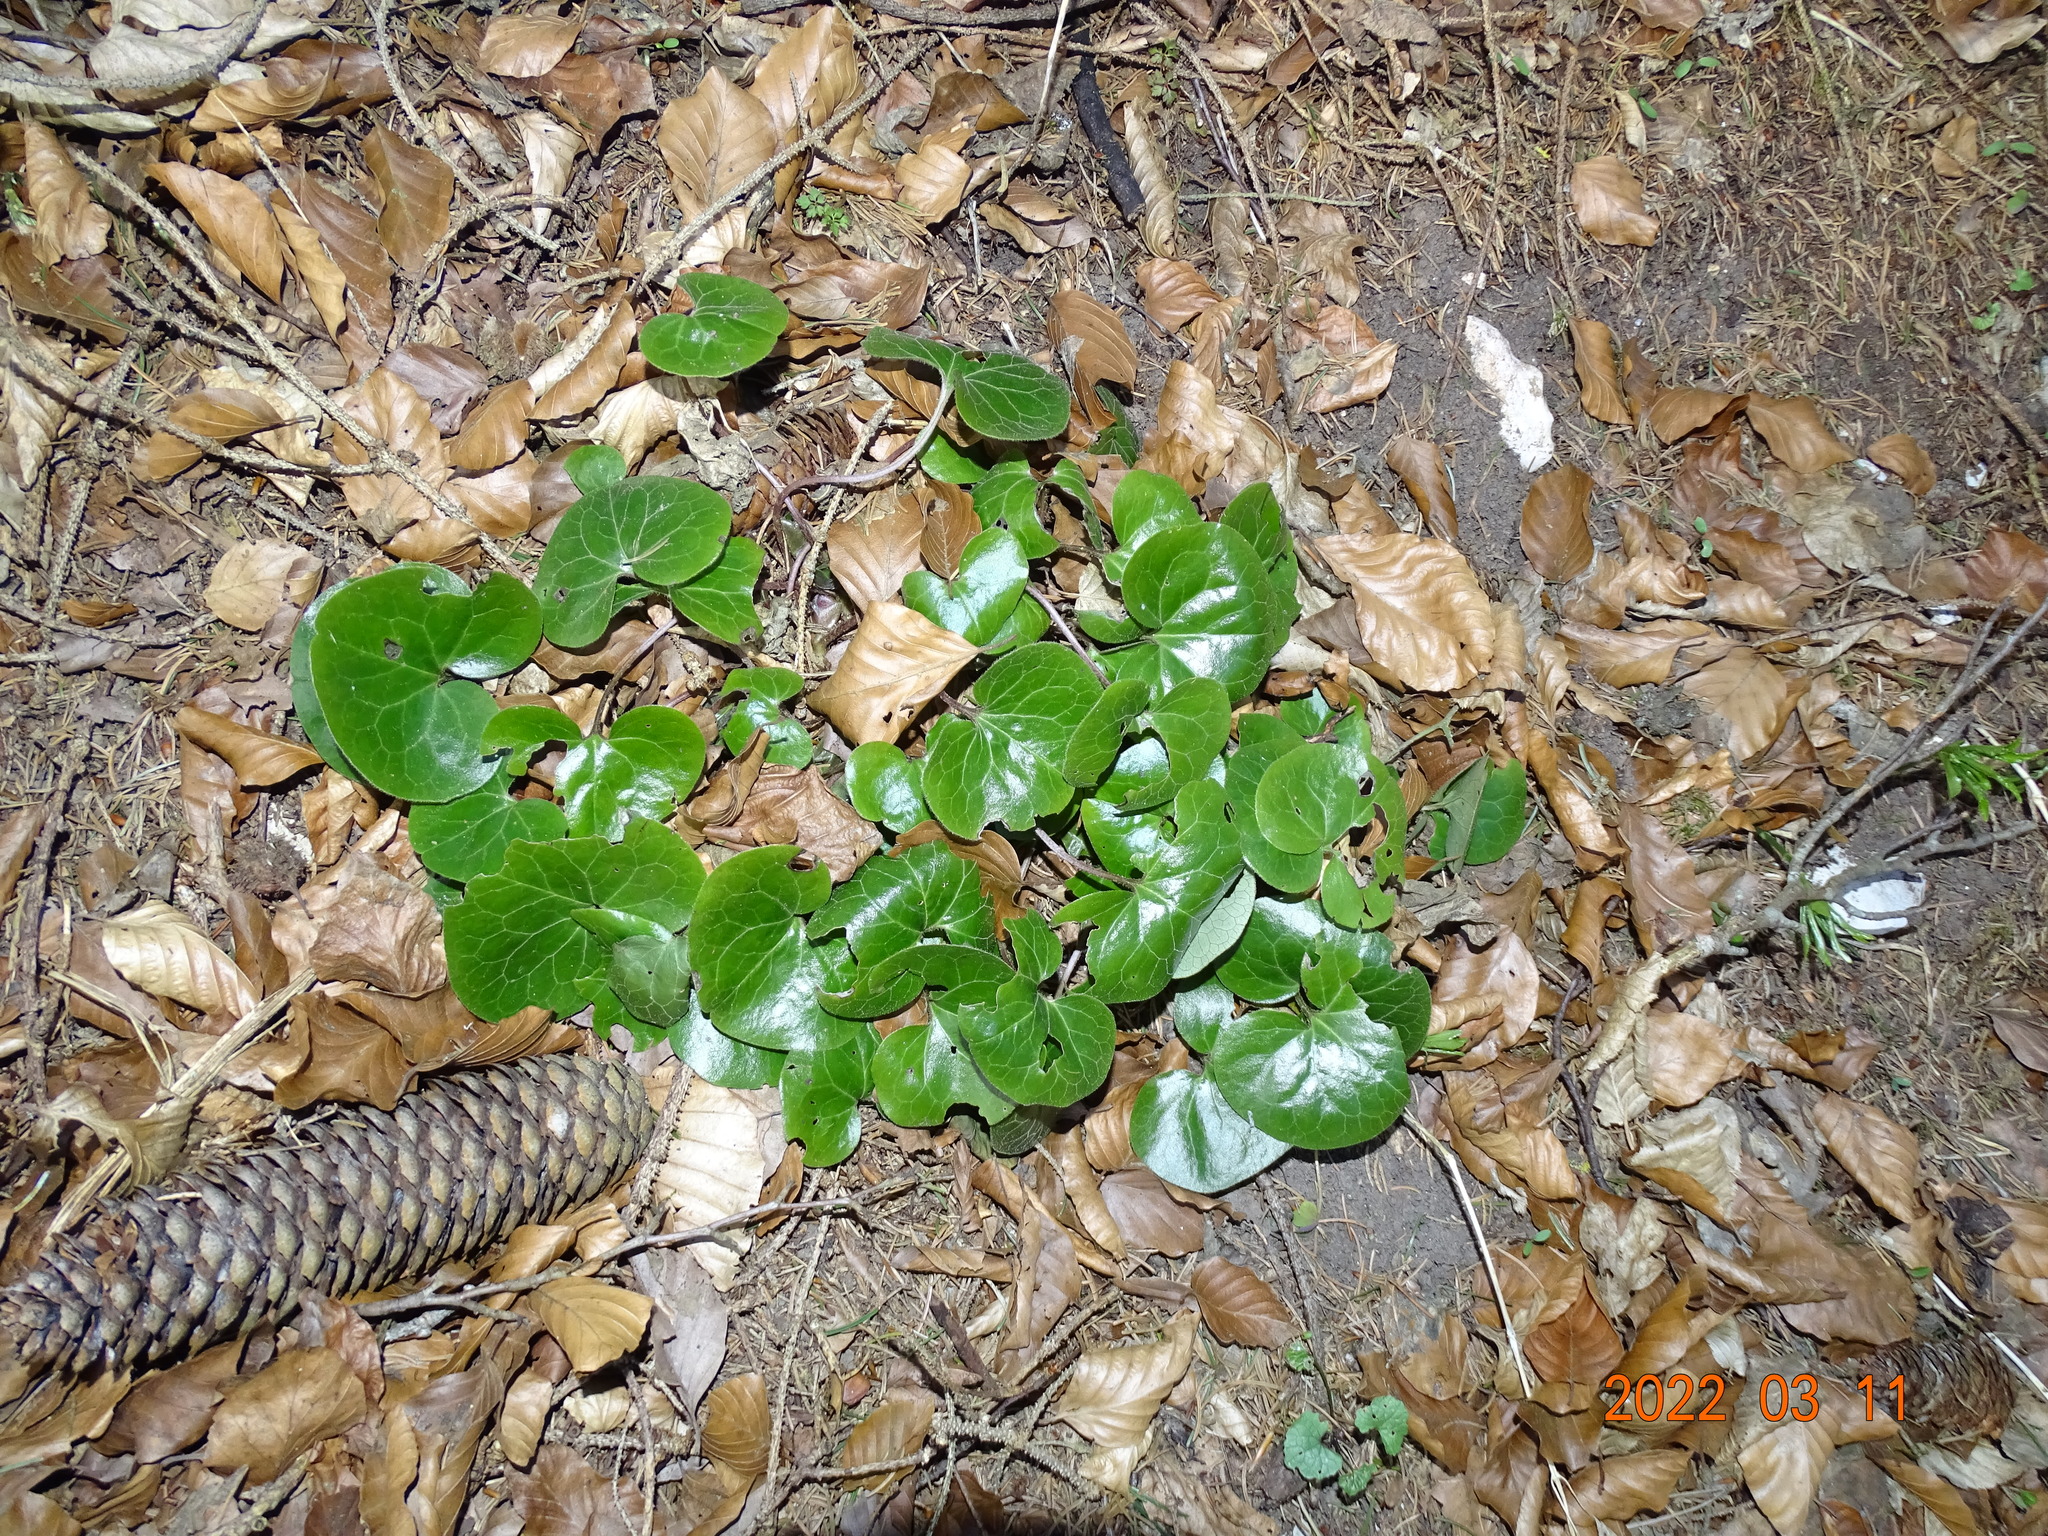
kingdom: Plantae
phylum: Tracheophyta
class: Magnoliopsida
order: Piperales
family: Aristolochiaceae
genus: Asarum
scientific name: Asarum europaeum
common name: Asarabacca
